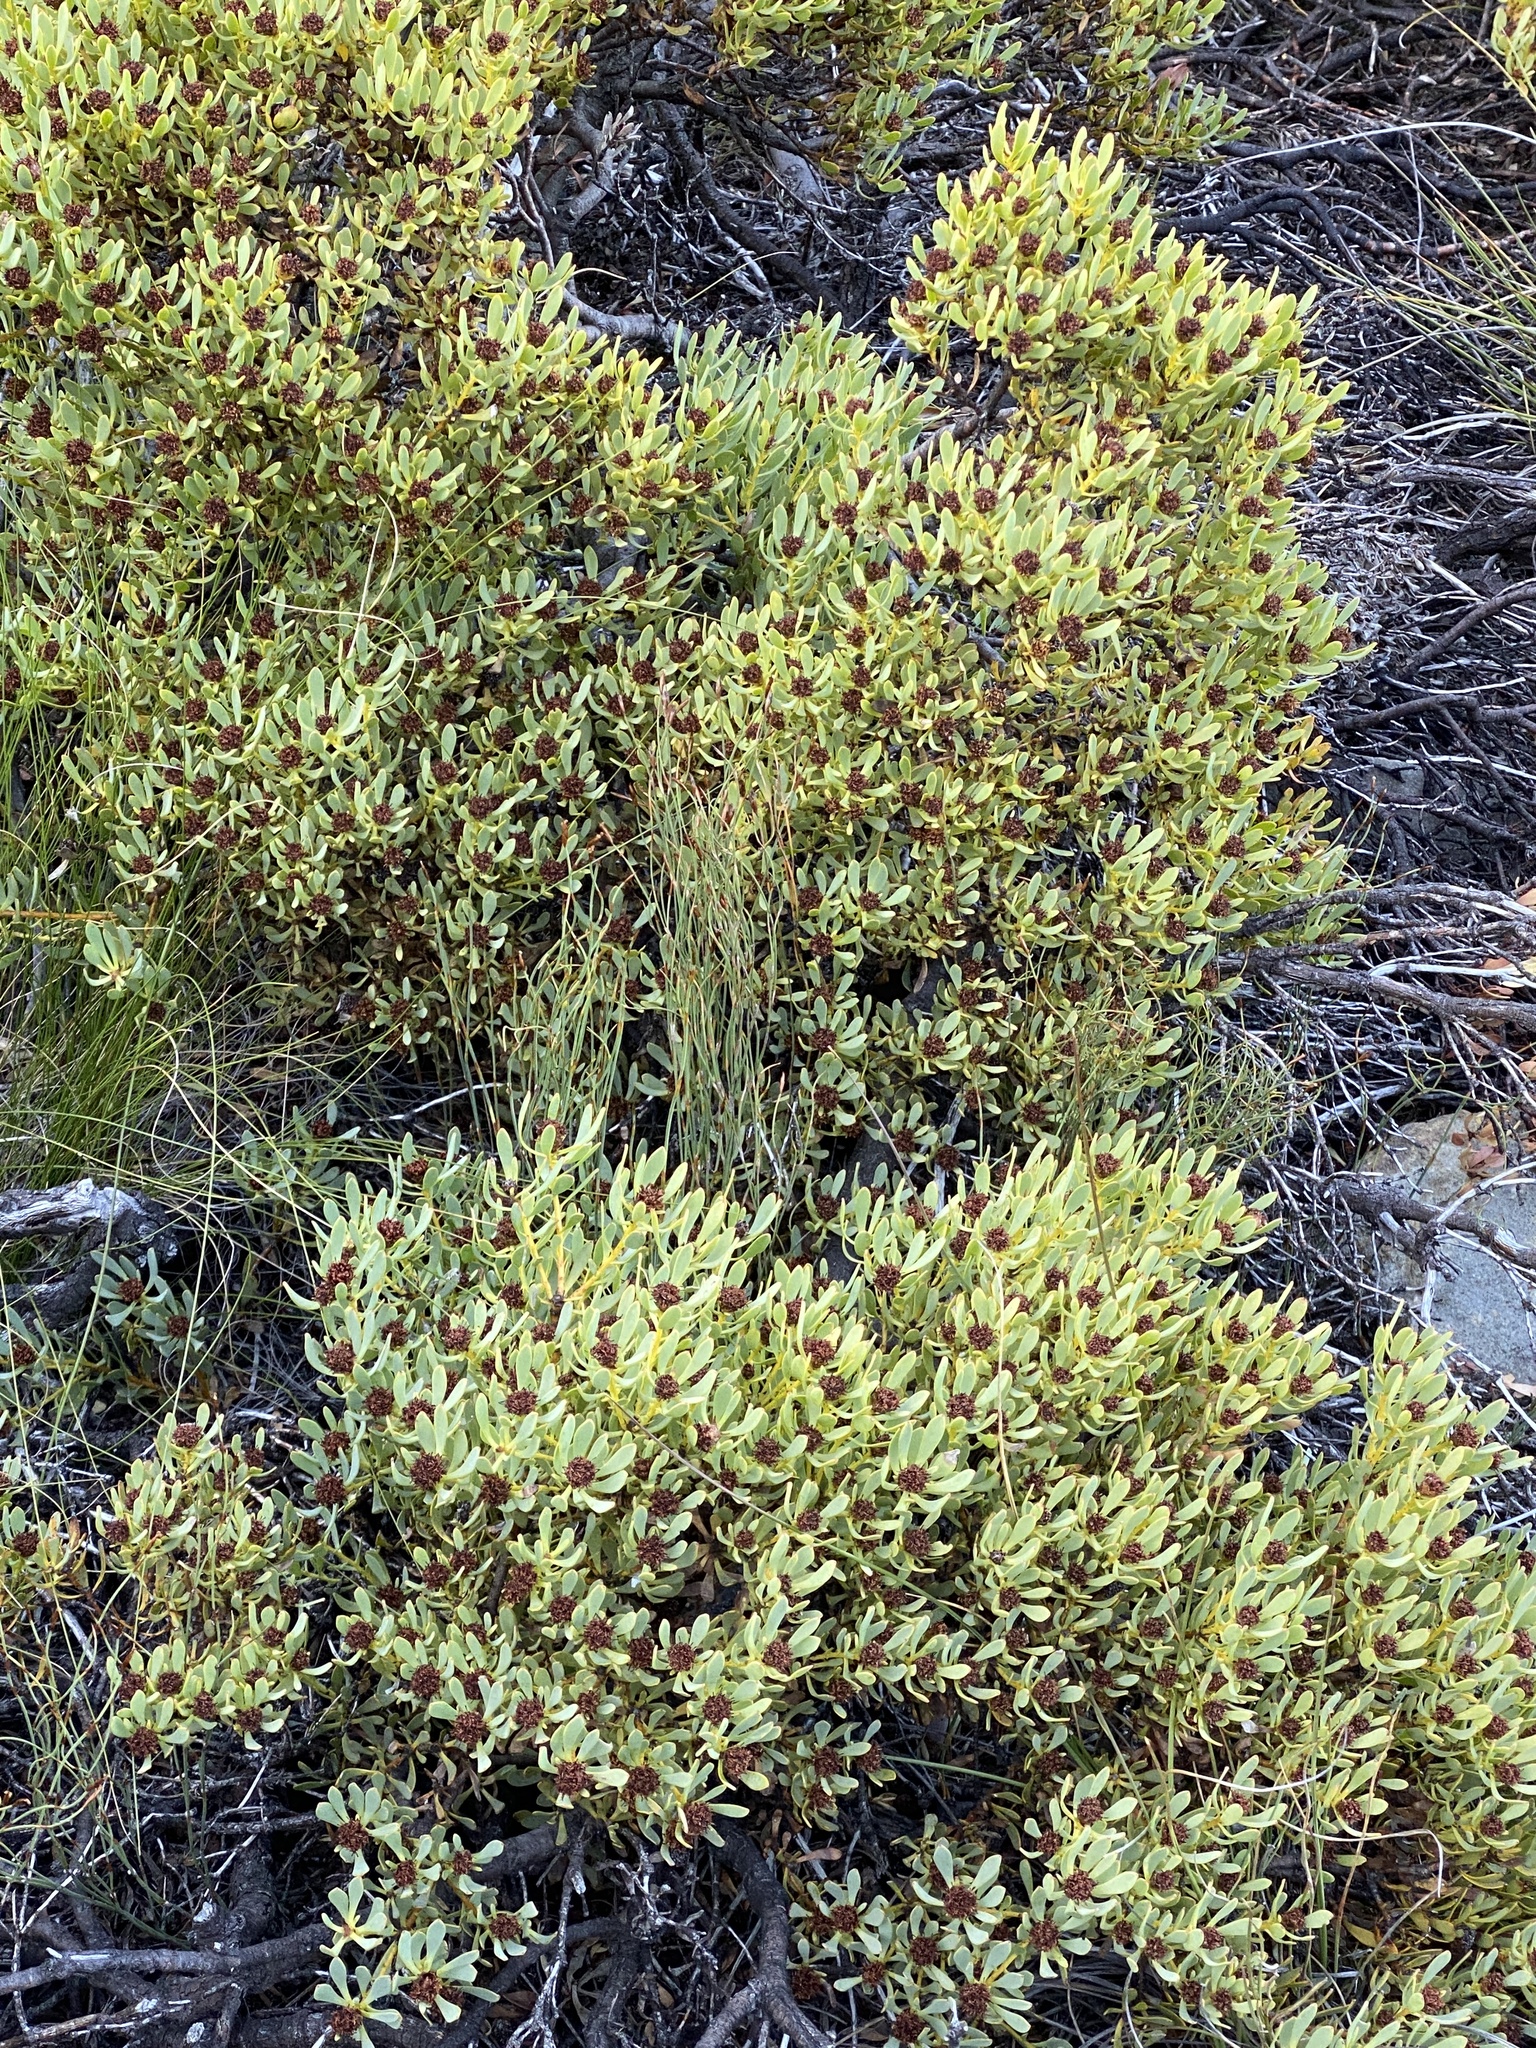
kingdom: Plantae
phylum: Tracheophyta
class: Magnoliopsida
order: Proteales
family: Proteaceae
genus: Leucadendron
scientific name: Leucadendron arcuatum
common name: Red-edge conebush
